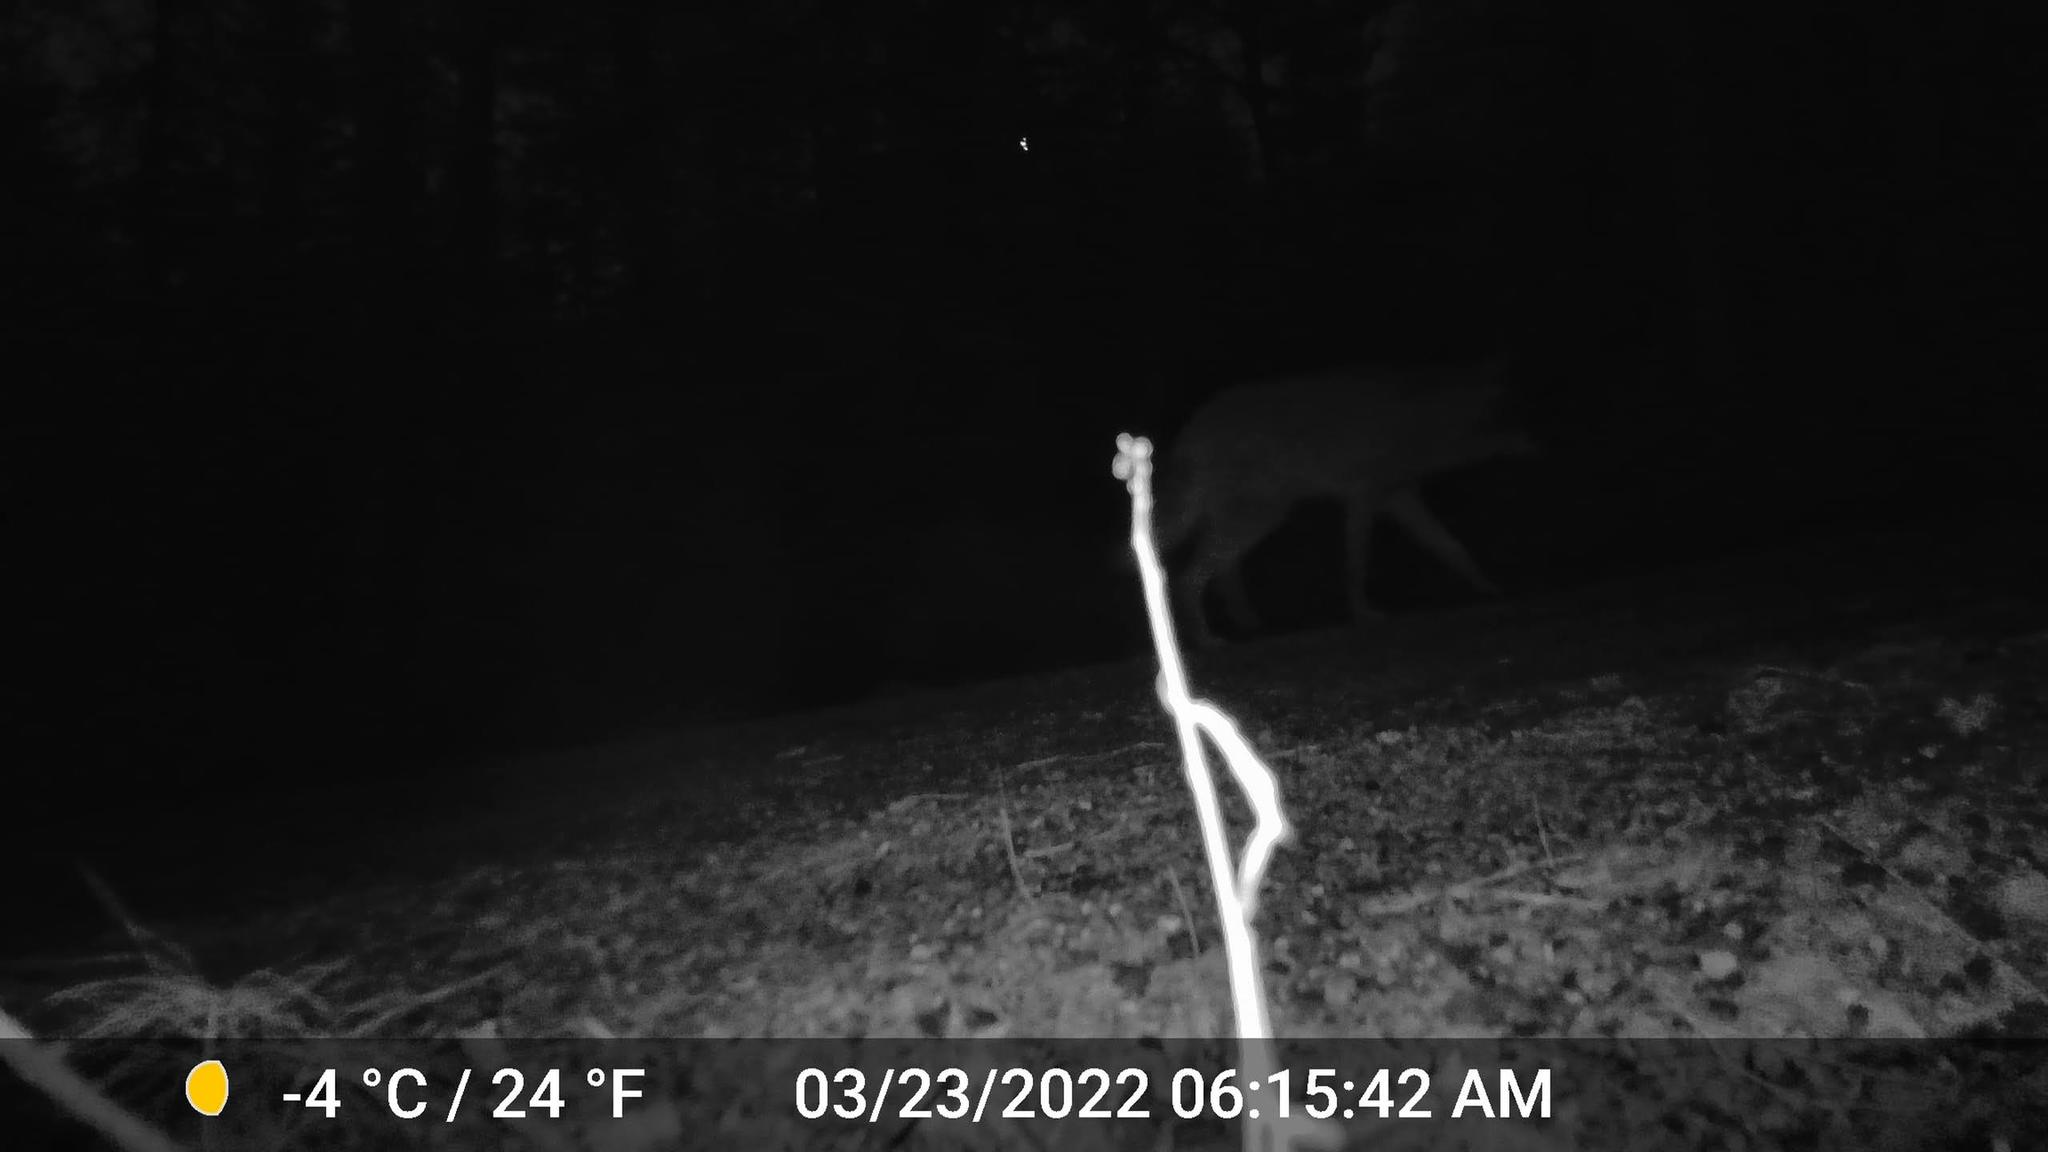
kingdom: Animalia
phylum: Chordata
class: Mammalia
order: Carnivora
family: Canidae
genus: Canis
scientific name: Canis latrans
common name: Coyote
